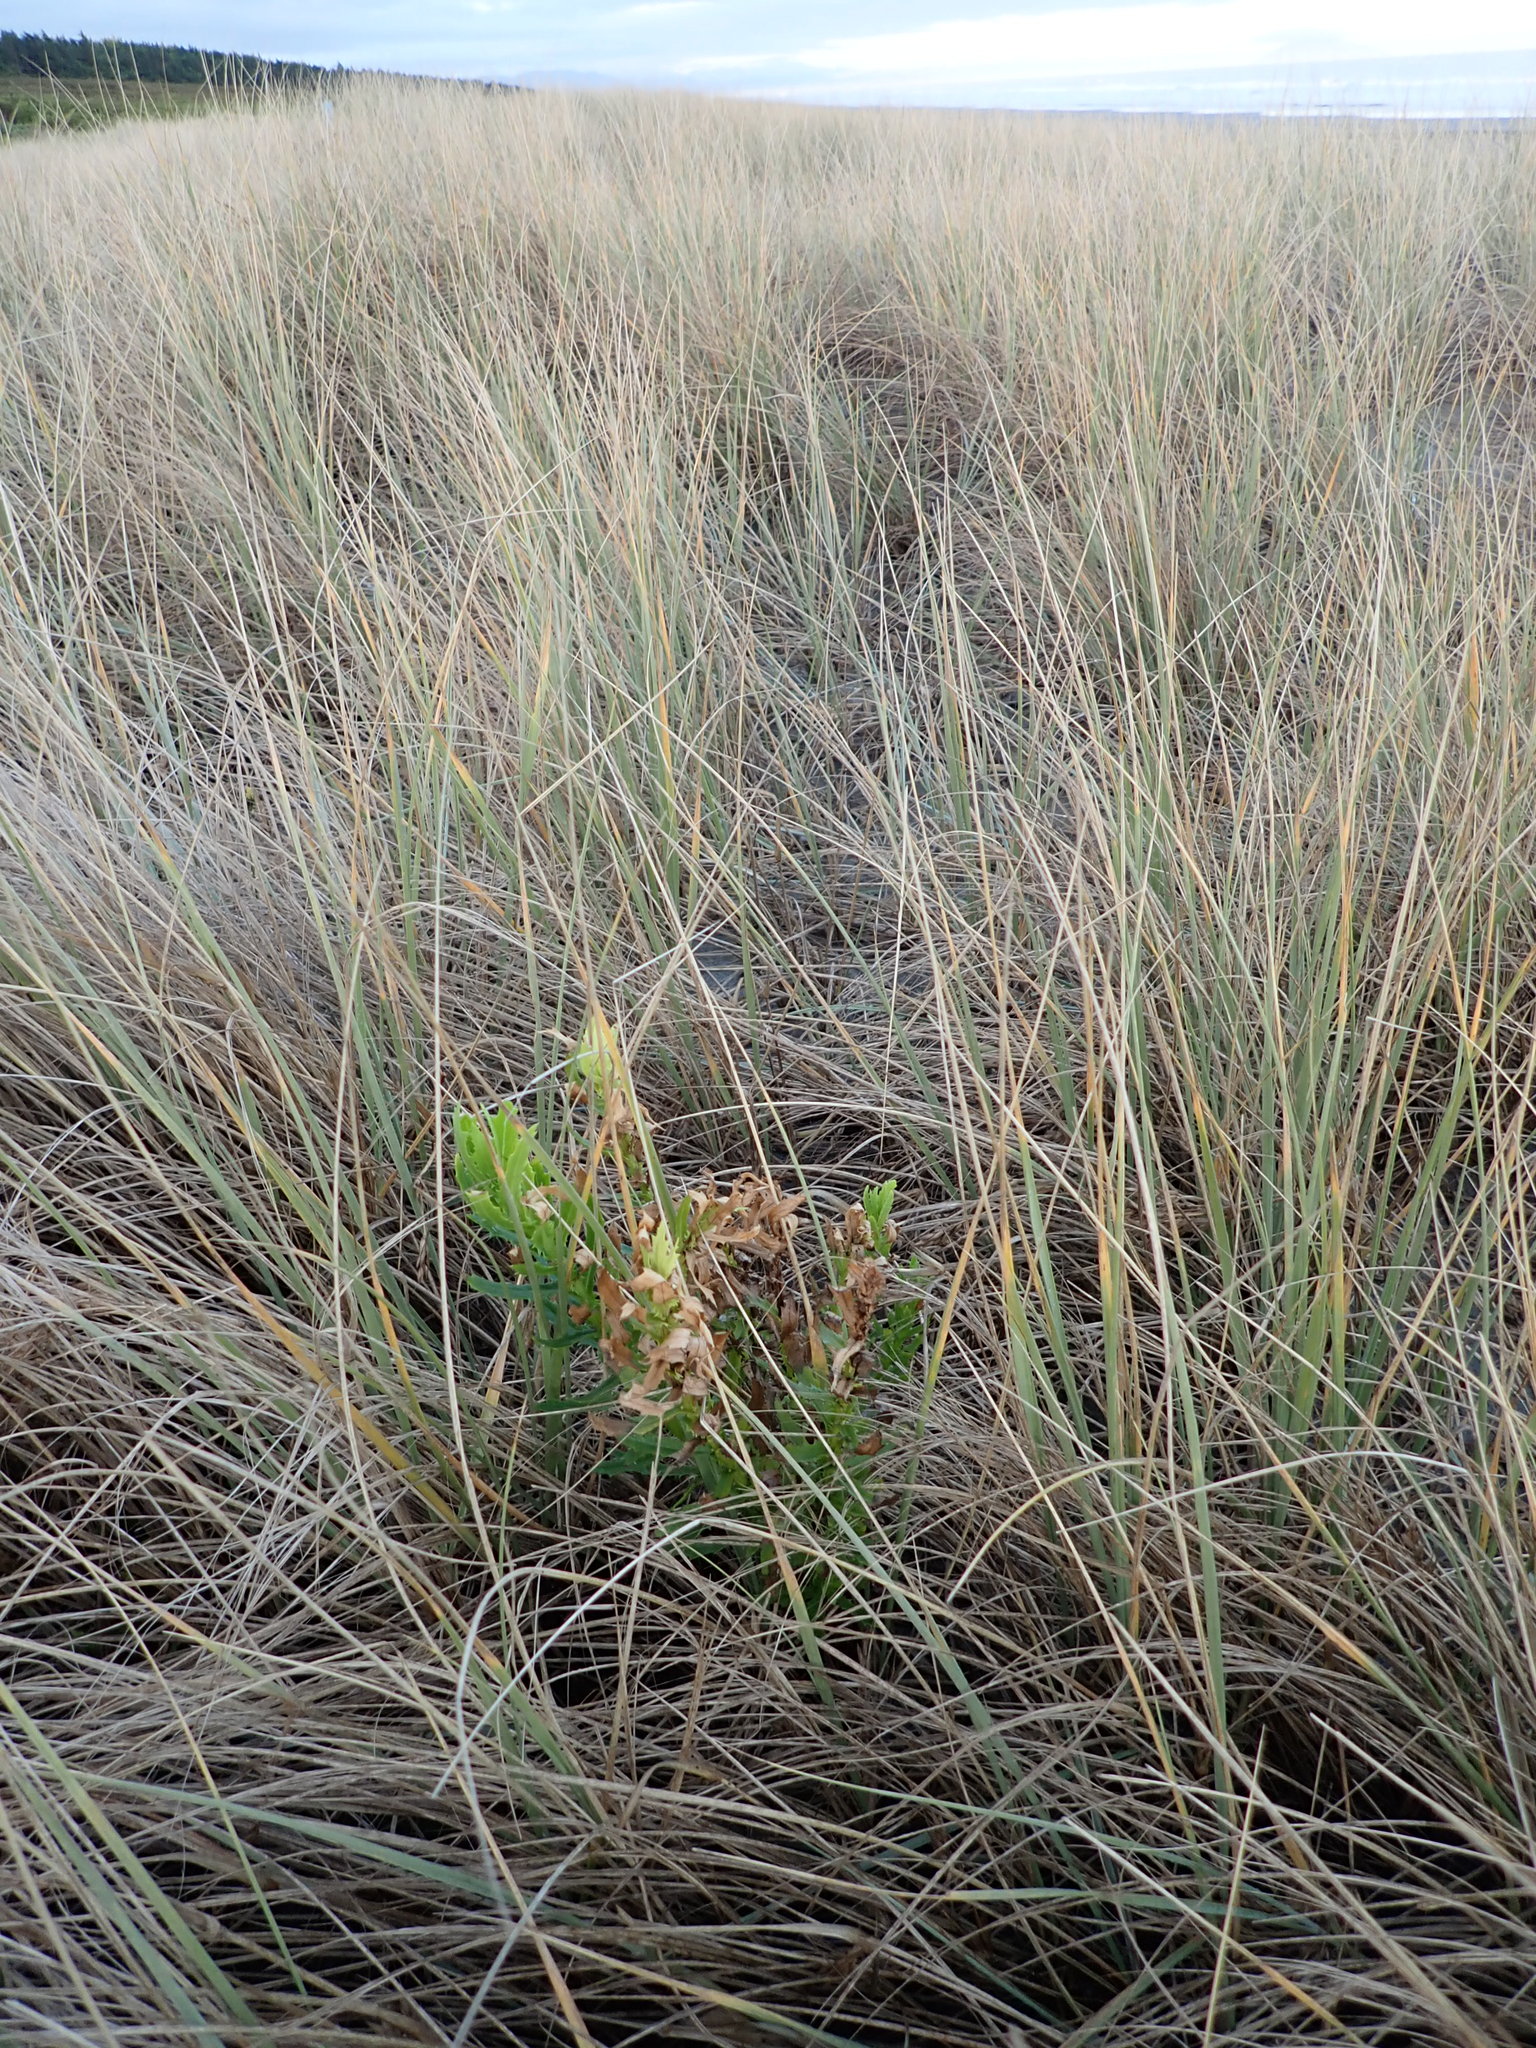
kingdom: Plantae
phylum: Tracheophyta
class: Magnoliopsida
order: Asterales
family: Asteraceae
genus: Senecio
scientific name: Senecio glastifolius
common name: Woad-leaved ragwort
